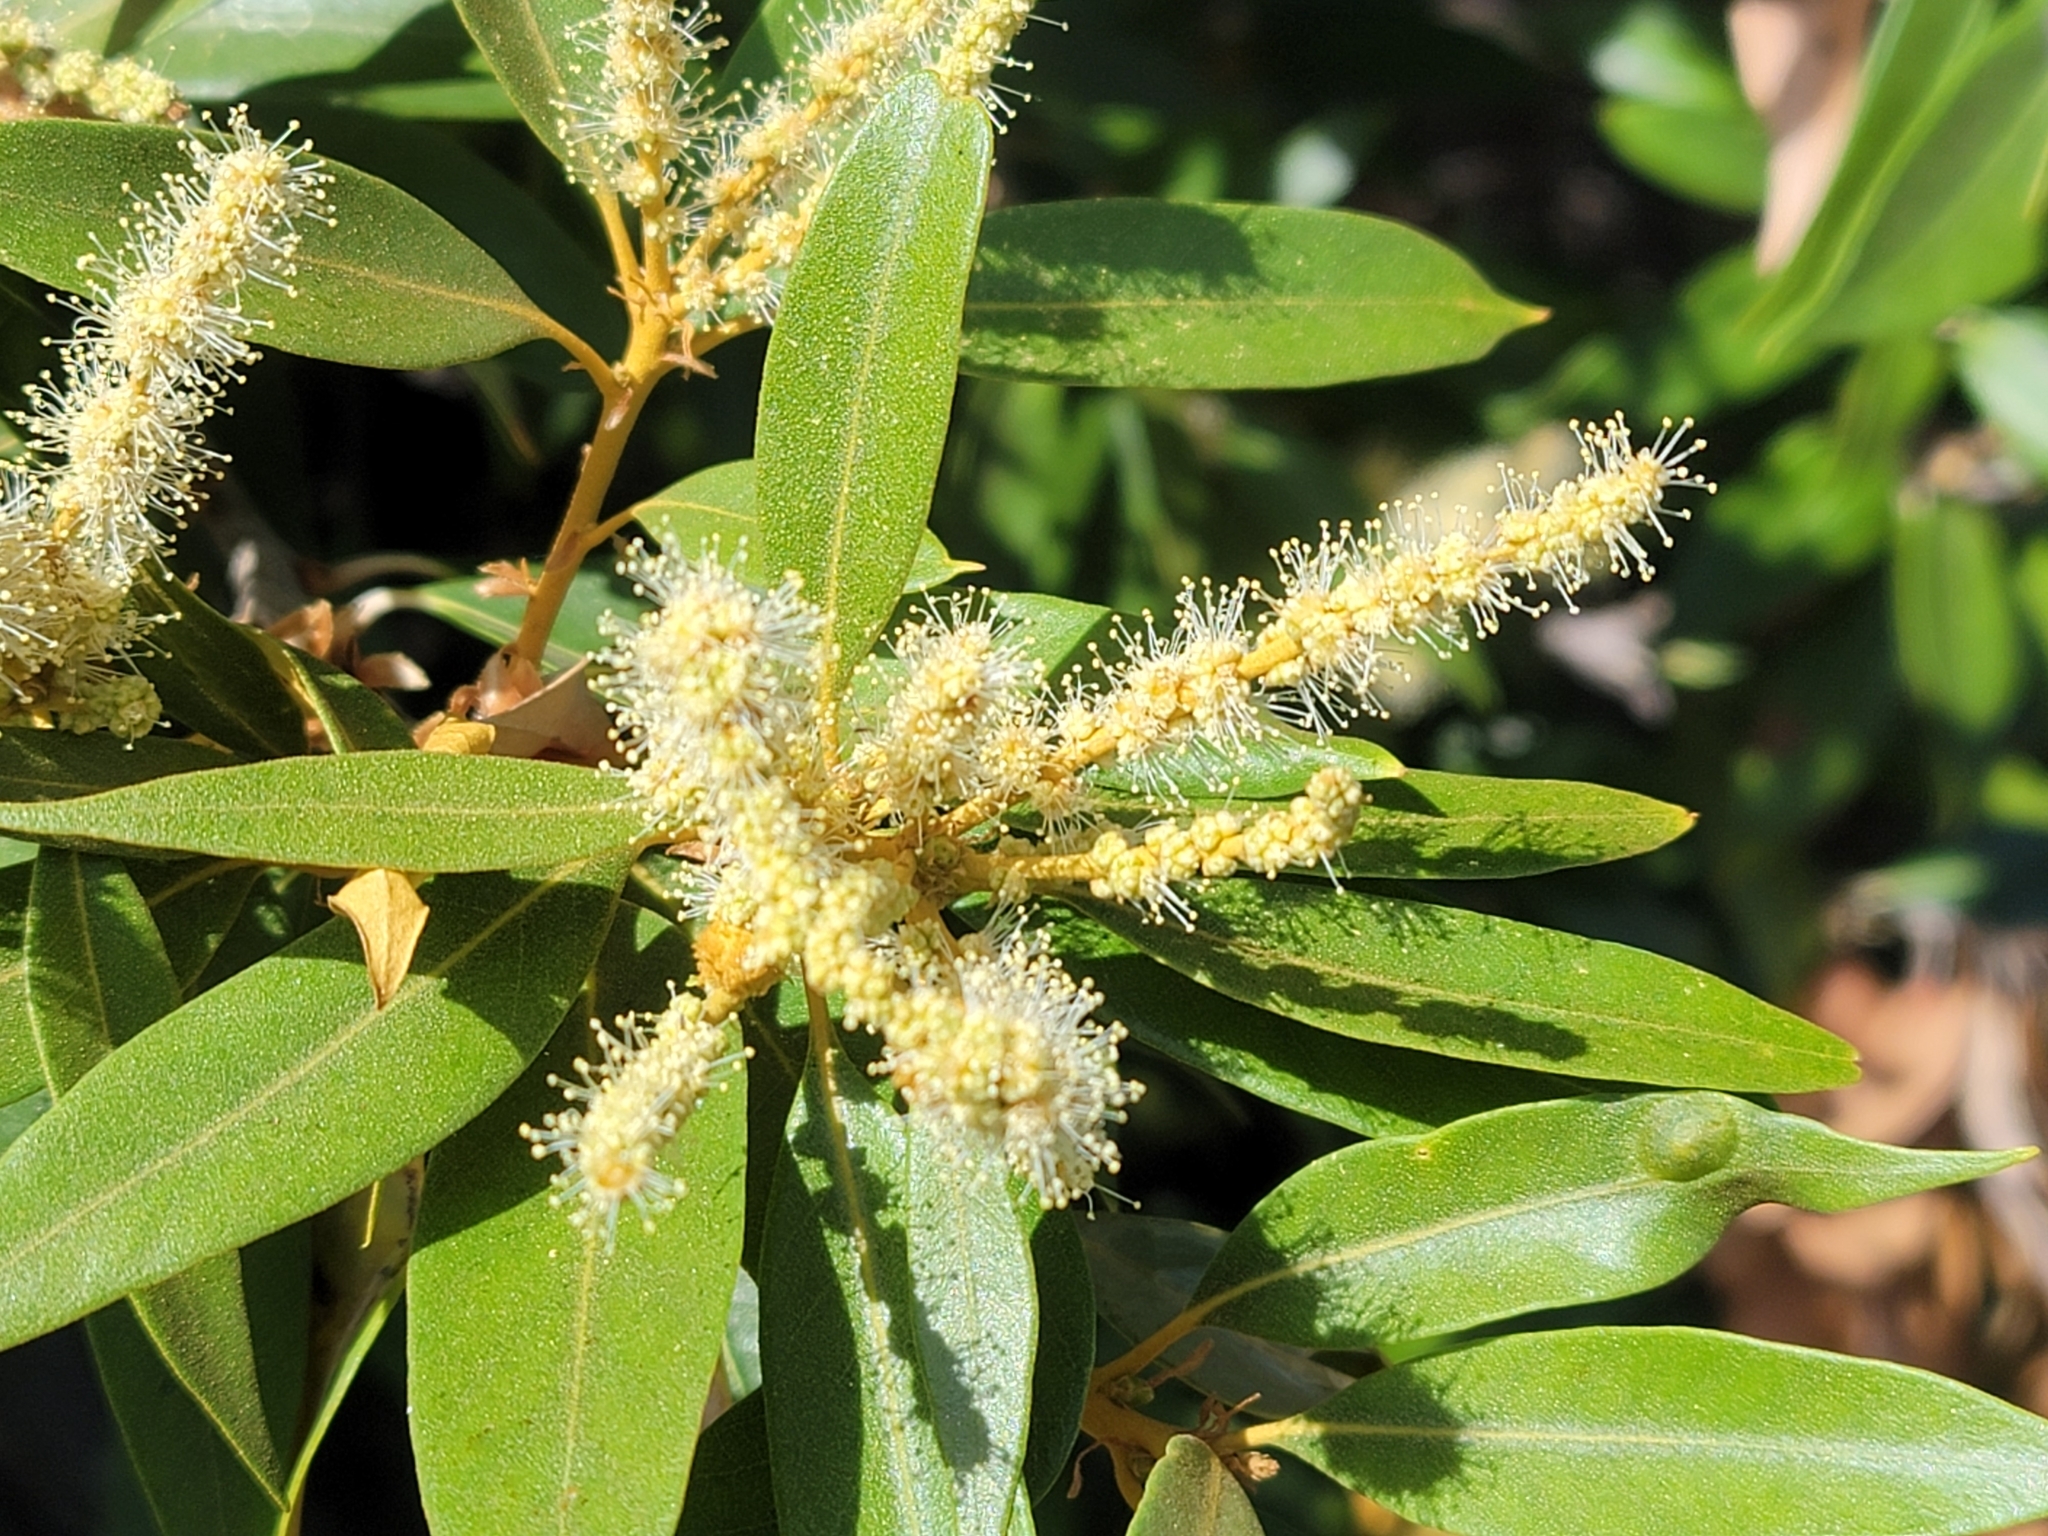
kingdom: Plantae
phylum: Tracheophyta
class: Magnoliopsida
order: Fagales
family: Fagaceae
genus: Chrysolepis
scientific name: Chrysolepis chrysophylla
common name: Giant chinquapin
